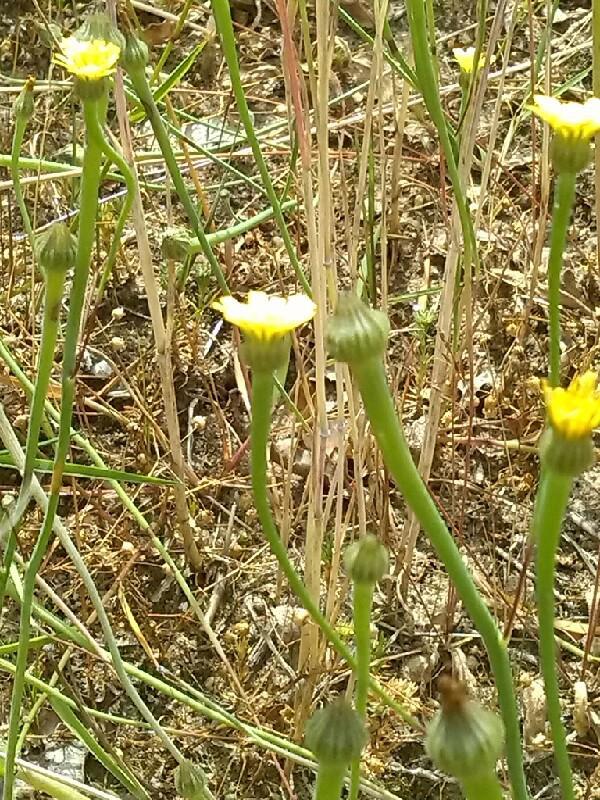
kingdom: Plantae
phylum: Tracheophyta
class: Magnoliopsida
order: Asterales
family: Asteraceae
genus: Arnoseris
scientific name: Arnoseris minima
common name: Lamb's succory
